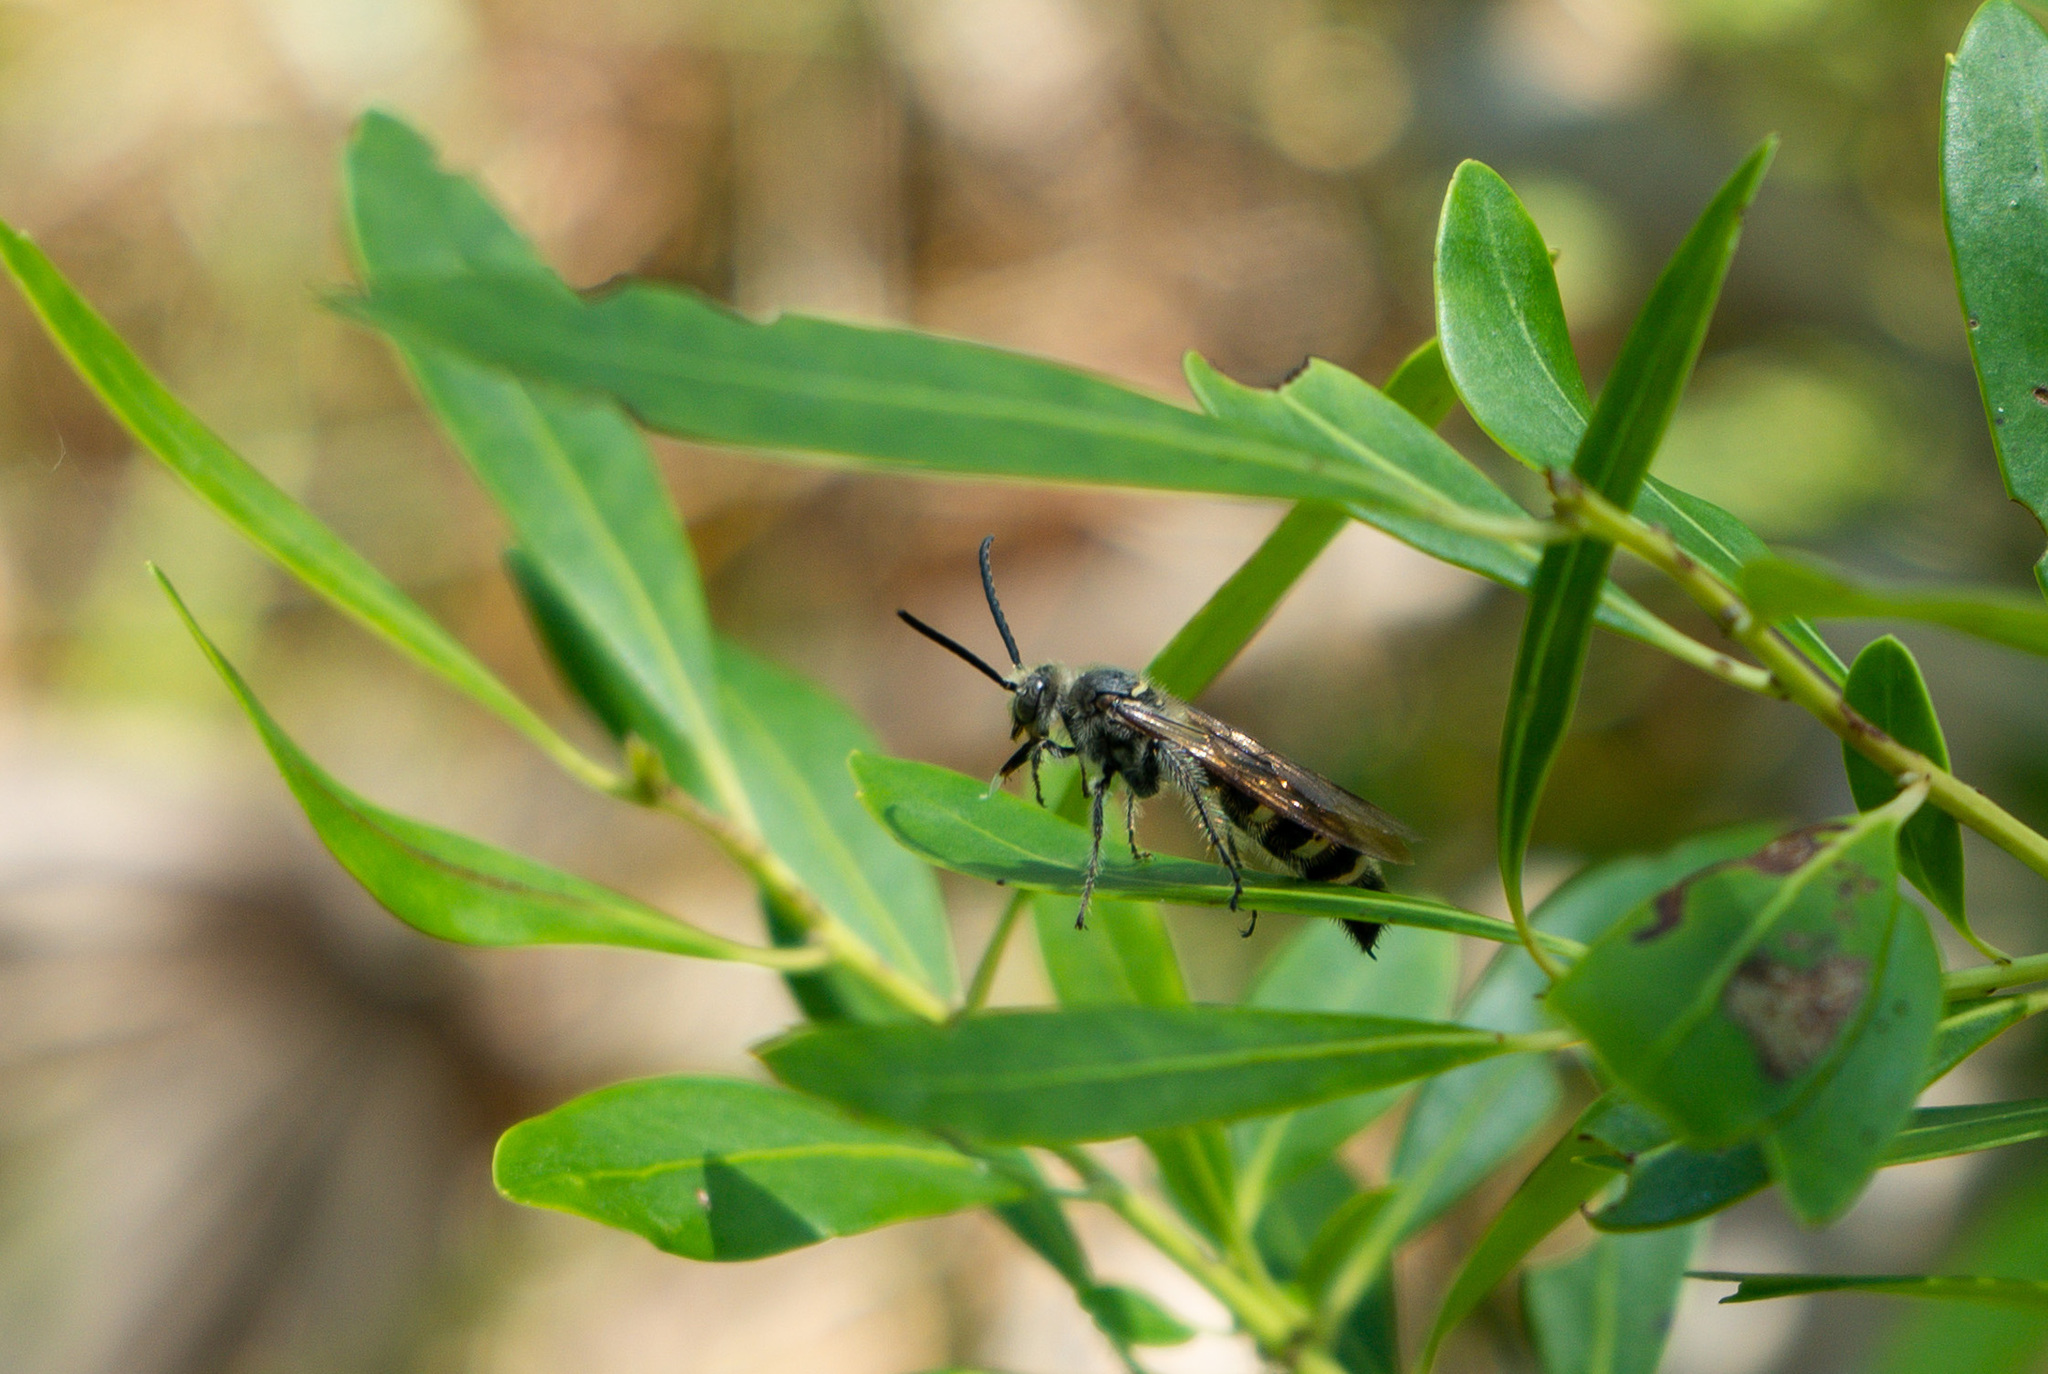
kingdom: Animalia
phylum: Arthropoda
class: Insecta
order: Hymenoptera
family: Scoliidae
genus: Dielis
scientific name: Dielis
